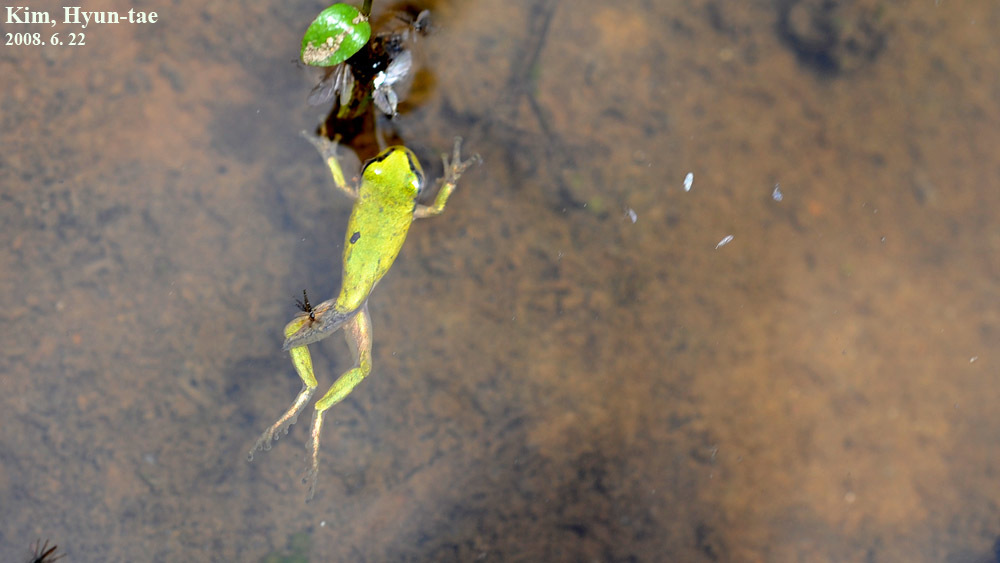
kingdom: Animalia
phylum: Chordata
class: Amphibia
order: Anura
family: Hylidae
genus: Dryophytes
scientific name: Dryophytes japonicus
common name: Japanese treefrog
